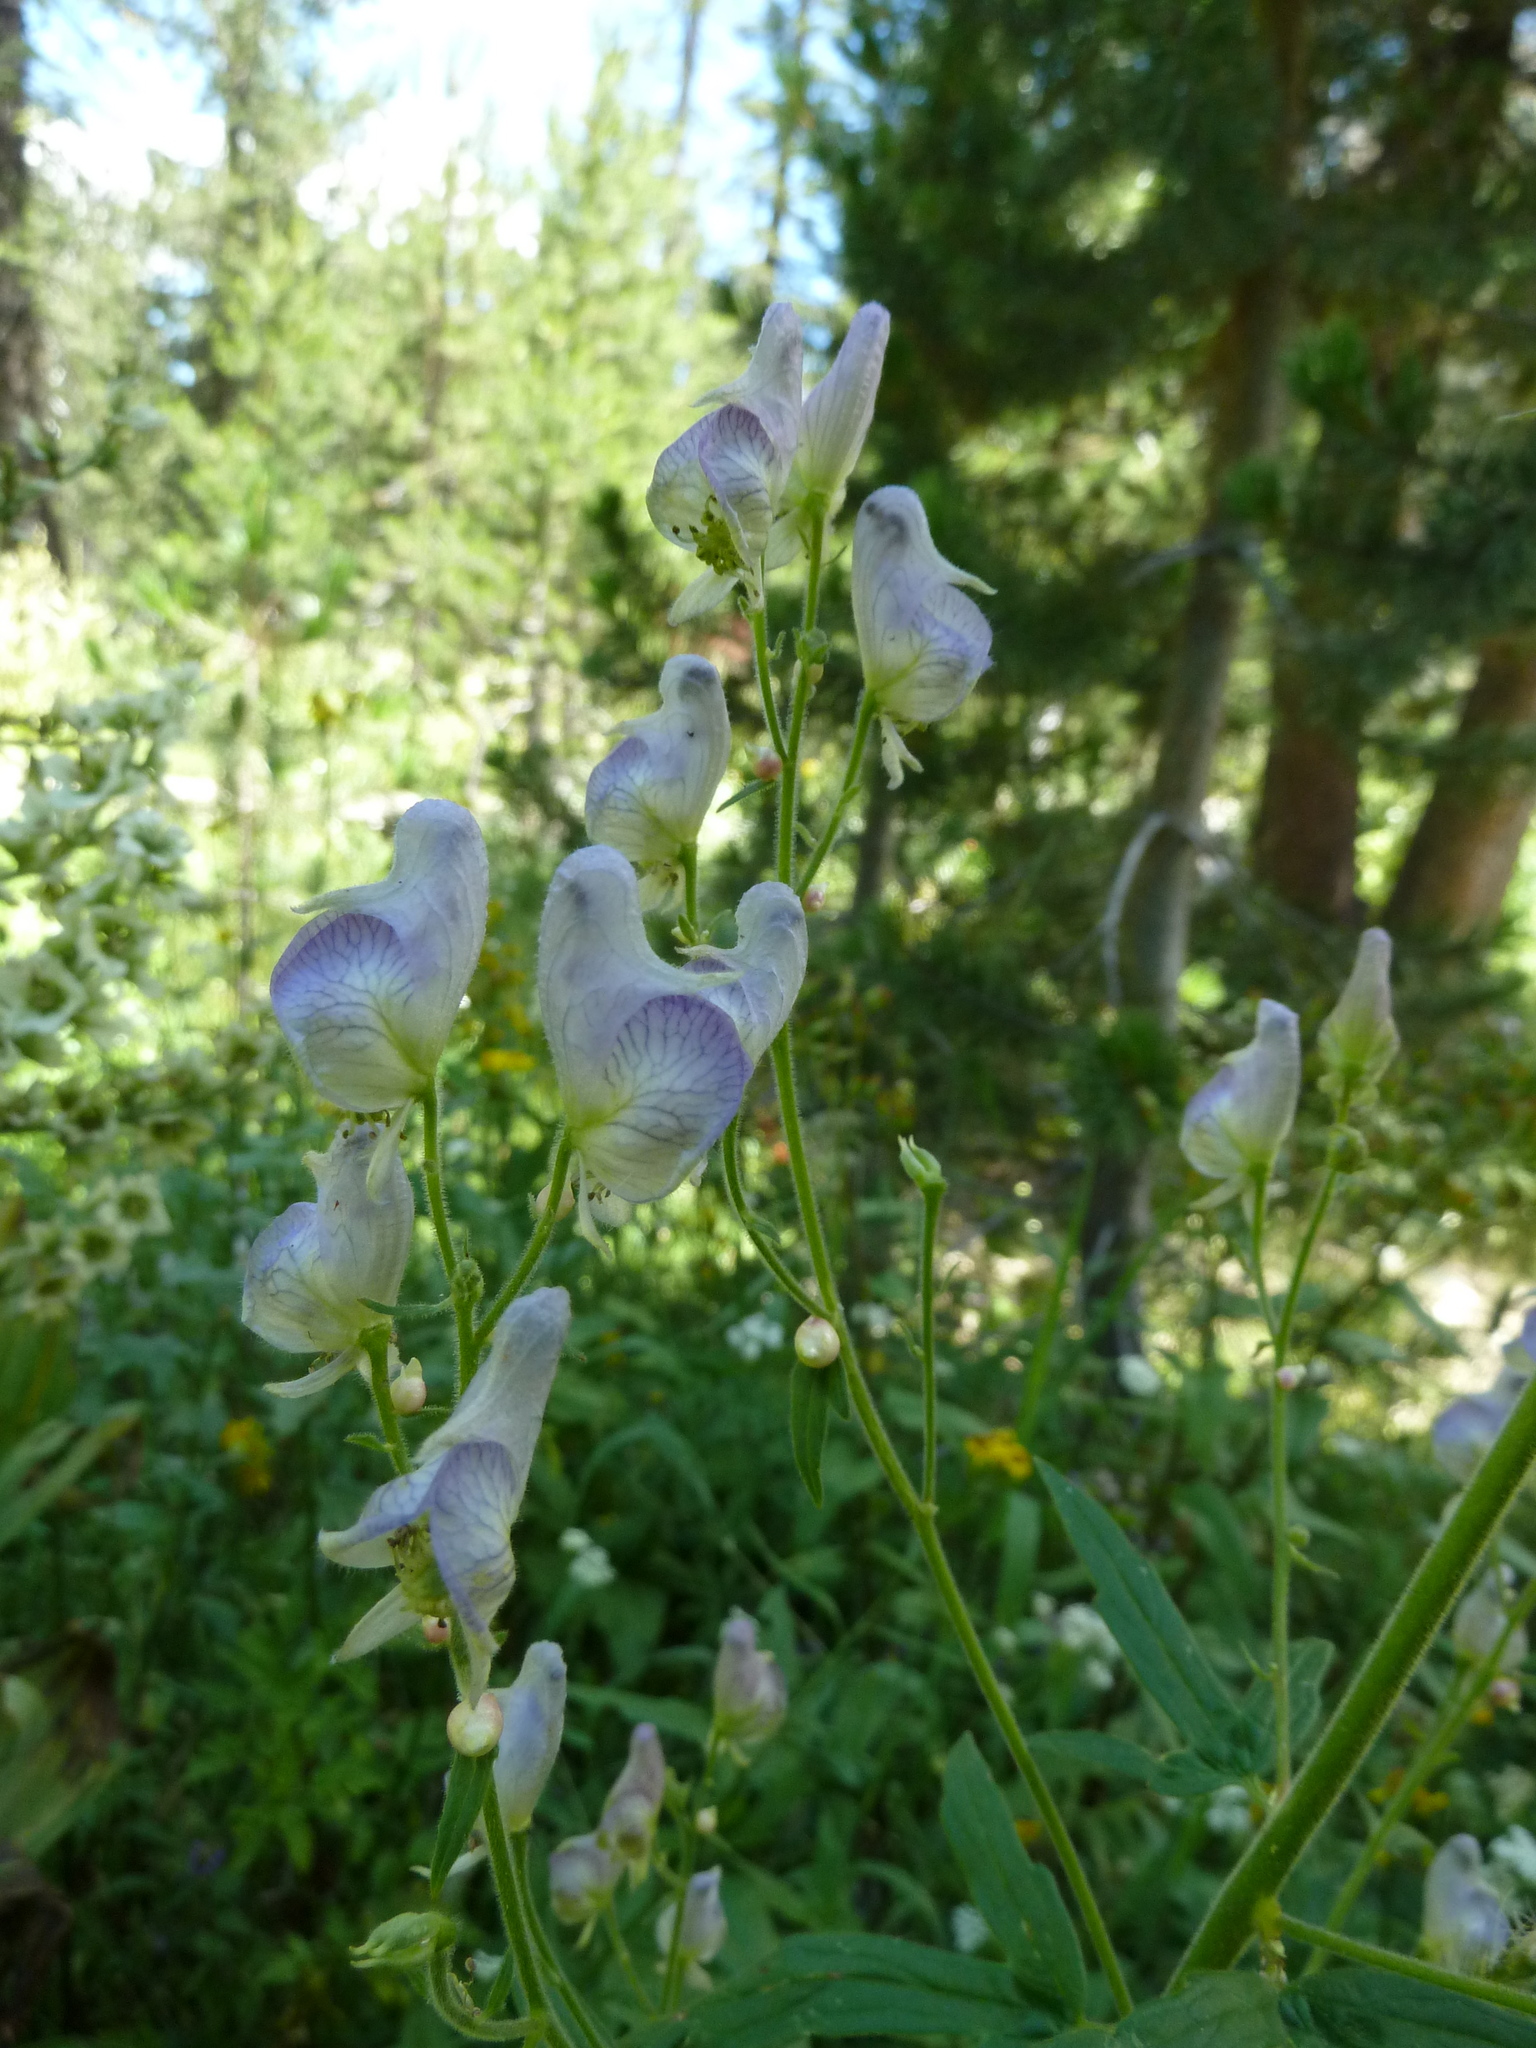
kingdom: Plantae
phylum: Tracheophyta
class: Magnoliopsida
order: Ranunculales
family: Ranunculaceae
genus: Aconitum
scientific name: Aconitum columbianum
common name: Columbia aconite
